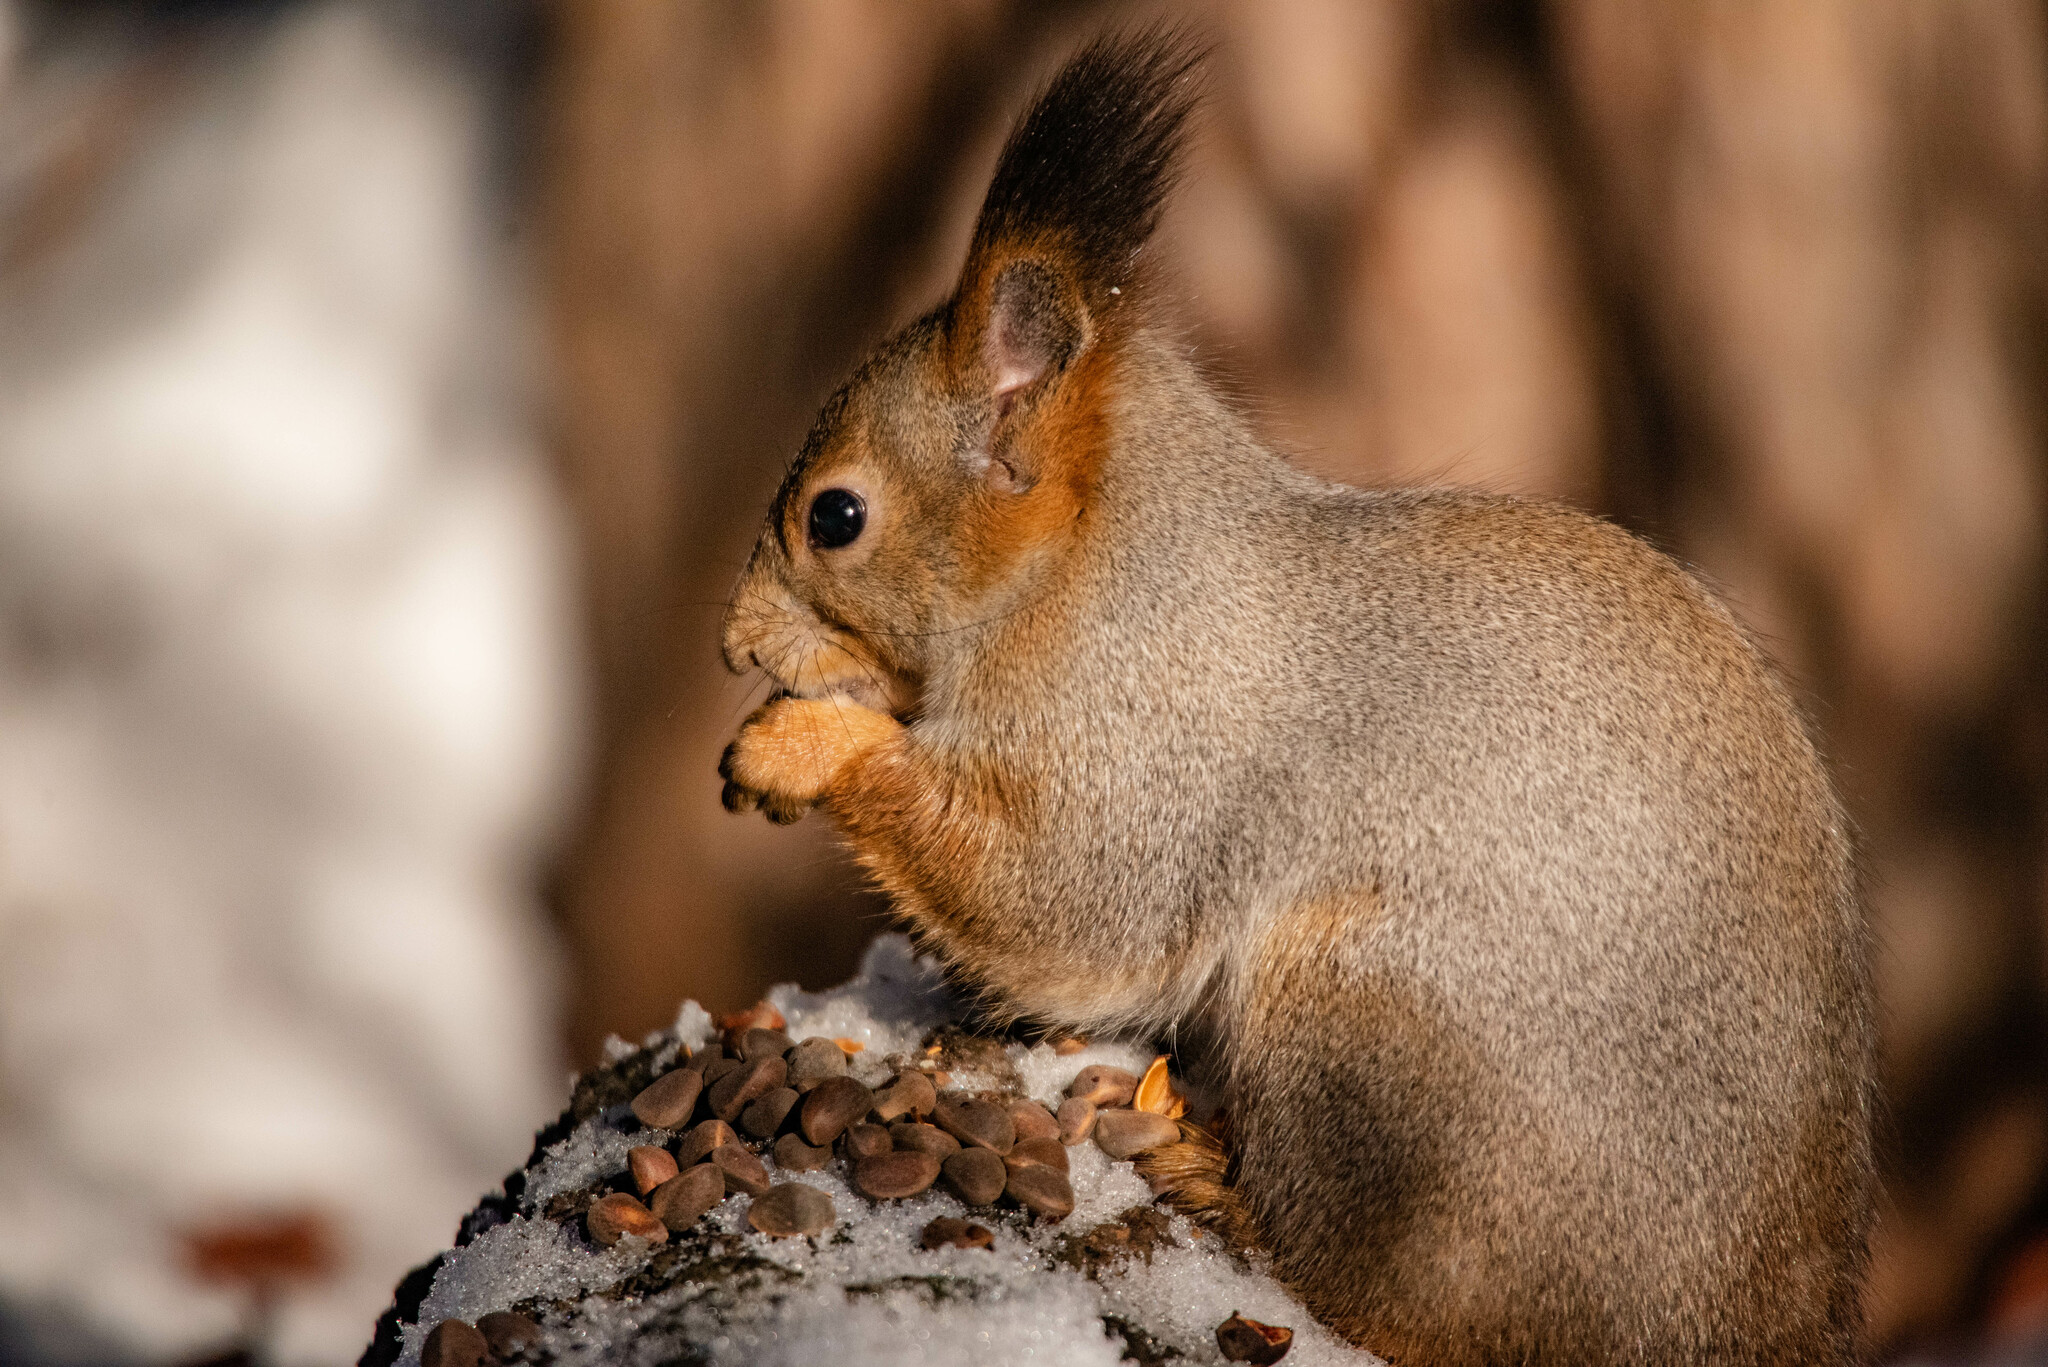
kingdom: Animalia
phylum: Chordata
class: Mammalia
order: Rodentia
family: Sciuridae
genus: Sciurus
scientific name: Sciurus vulgaris
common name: Eurasian red squirrel
